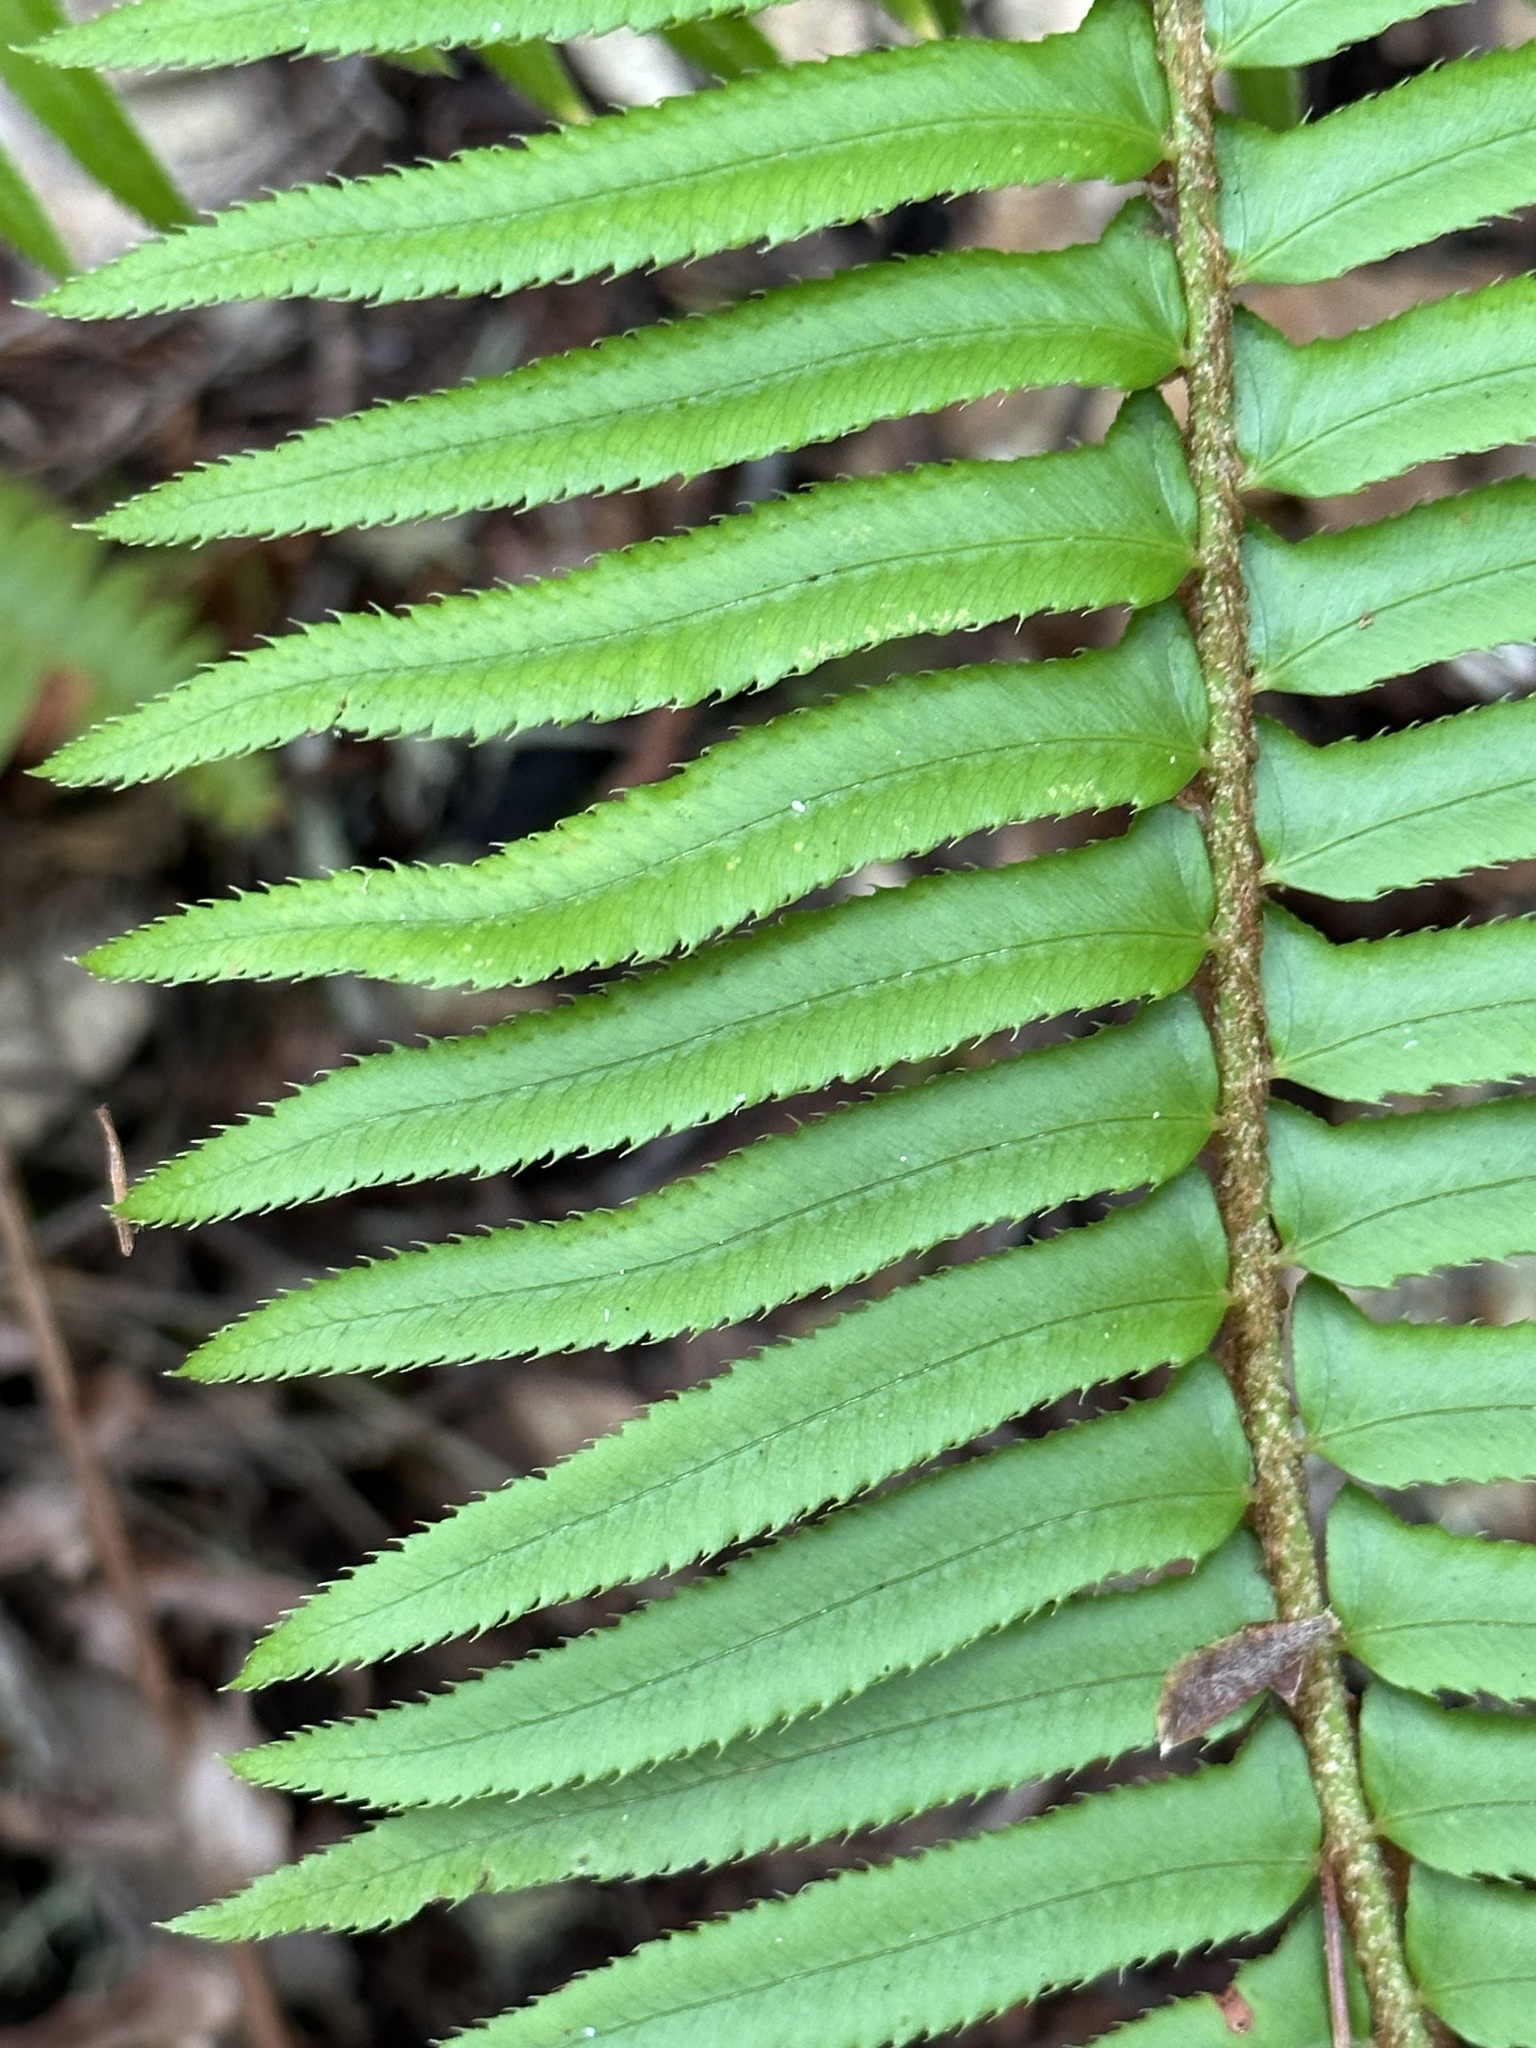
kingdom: Plantae
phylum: Tracheophyta
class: Polypodiopsida
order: Polypodiales
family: Dryopteridaceae
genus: Polystichum
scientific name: Polystichum munitum
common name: Western sword-fern
